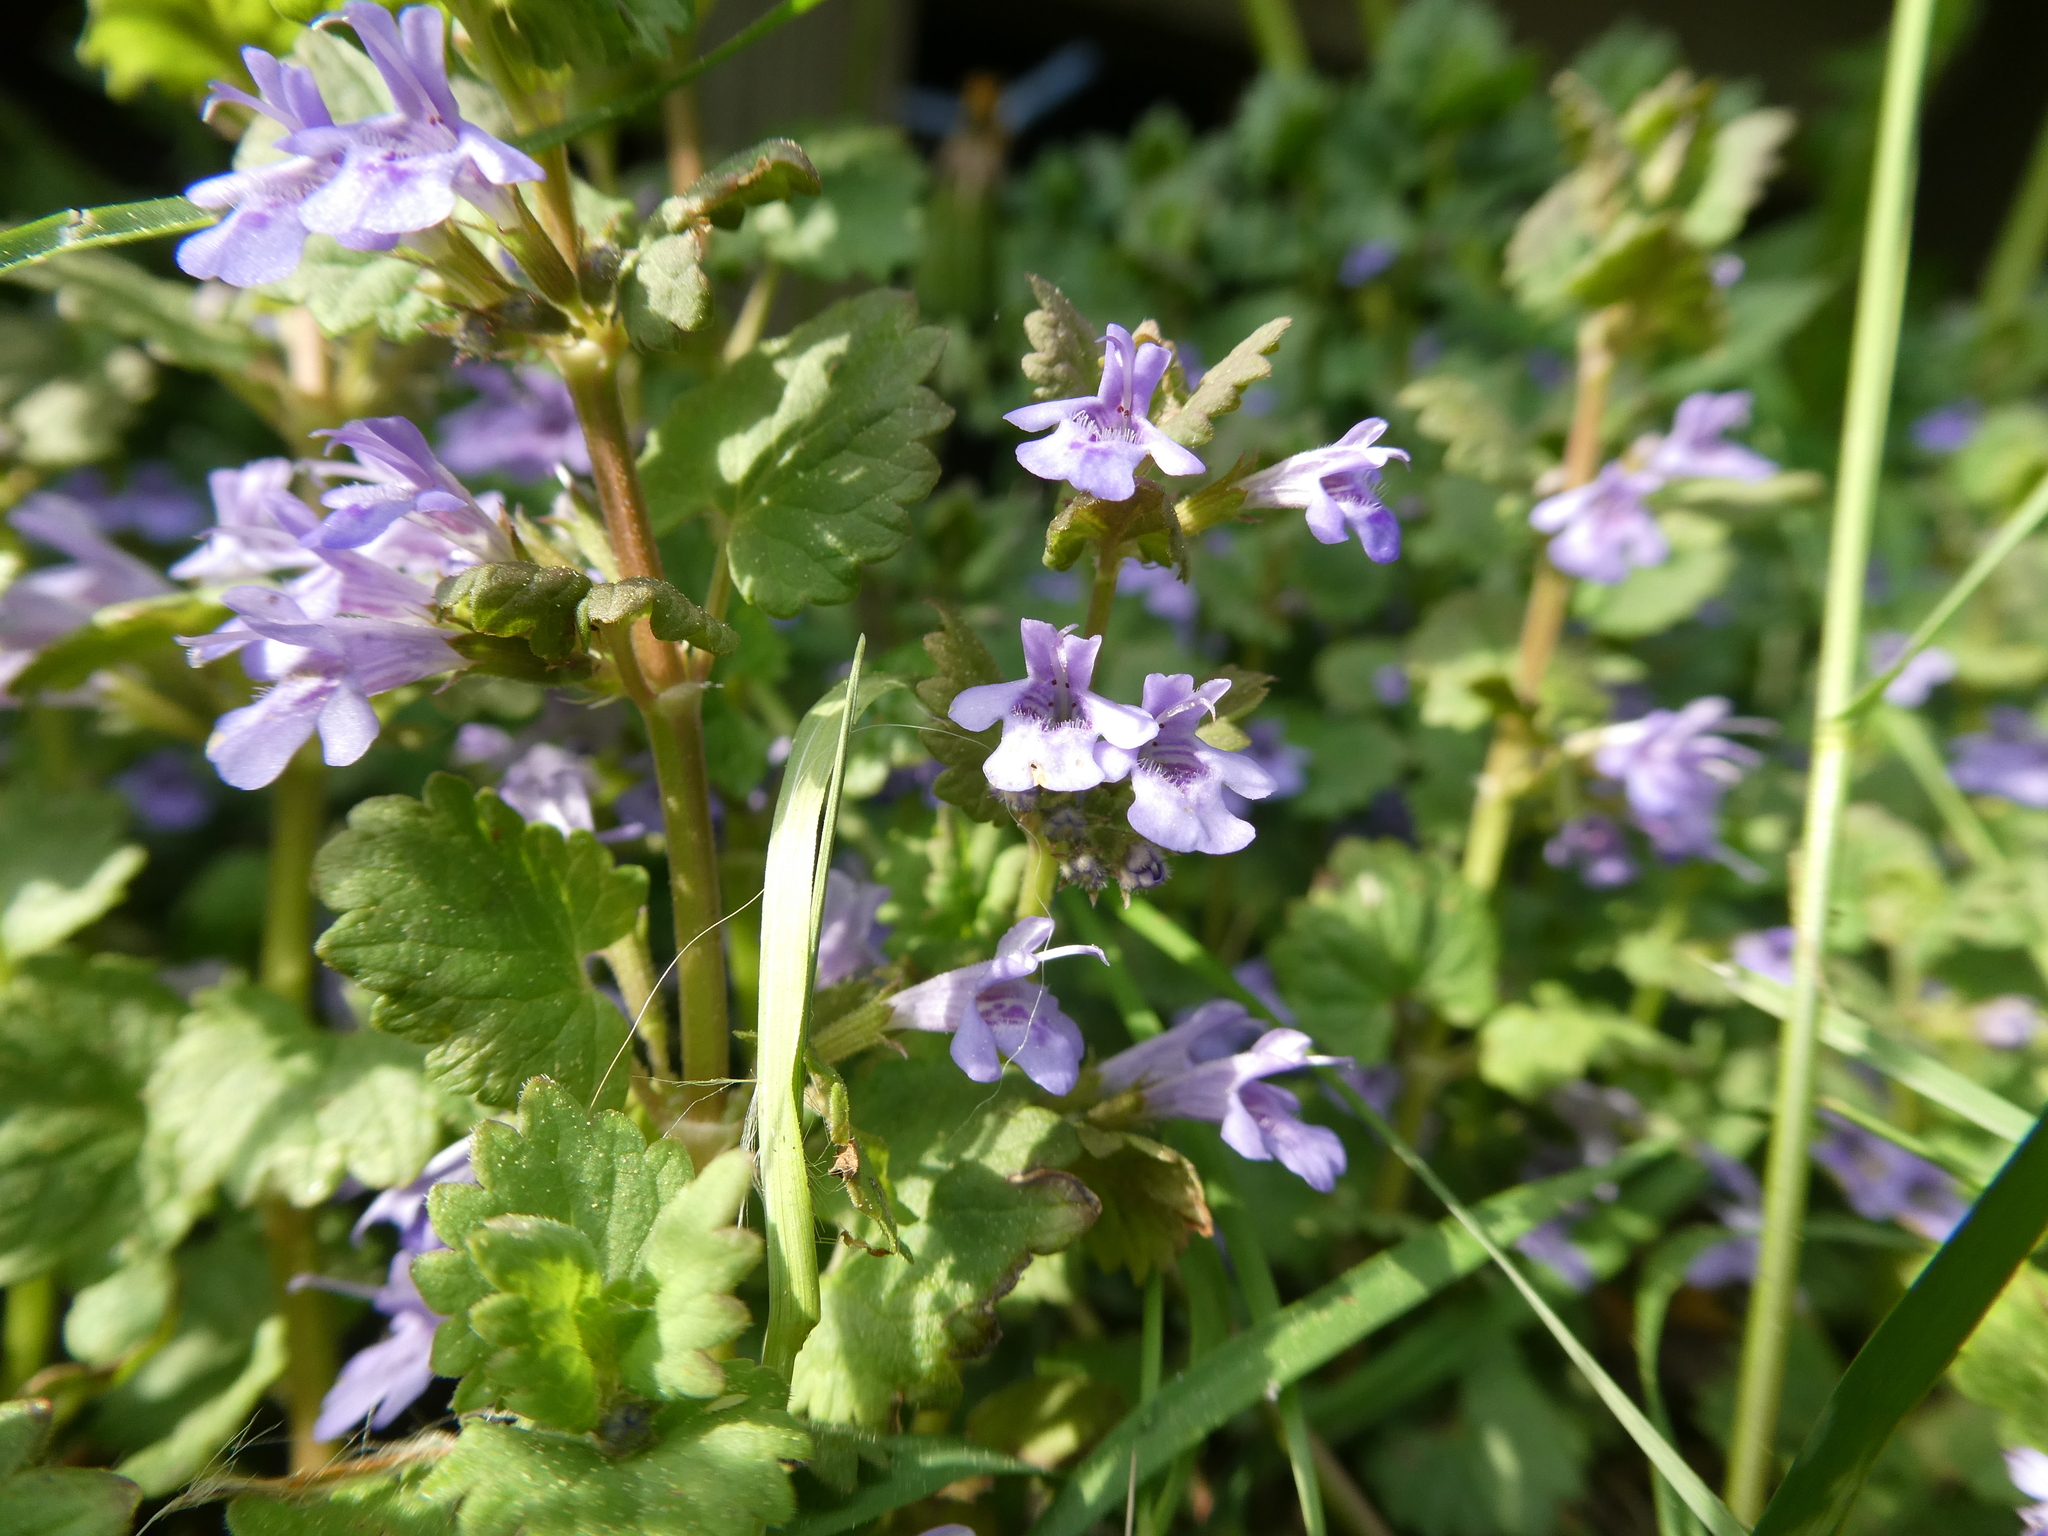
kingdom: Plantae
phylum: Tracheophyta
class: Magnoliopsida
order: Lamiales
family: Lamiaceae
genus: Glechoma
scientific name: Glechoma hederacea
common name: Ground ivy
